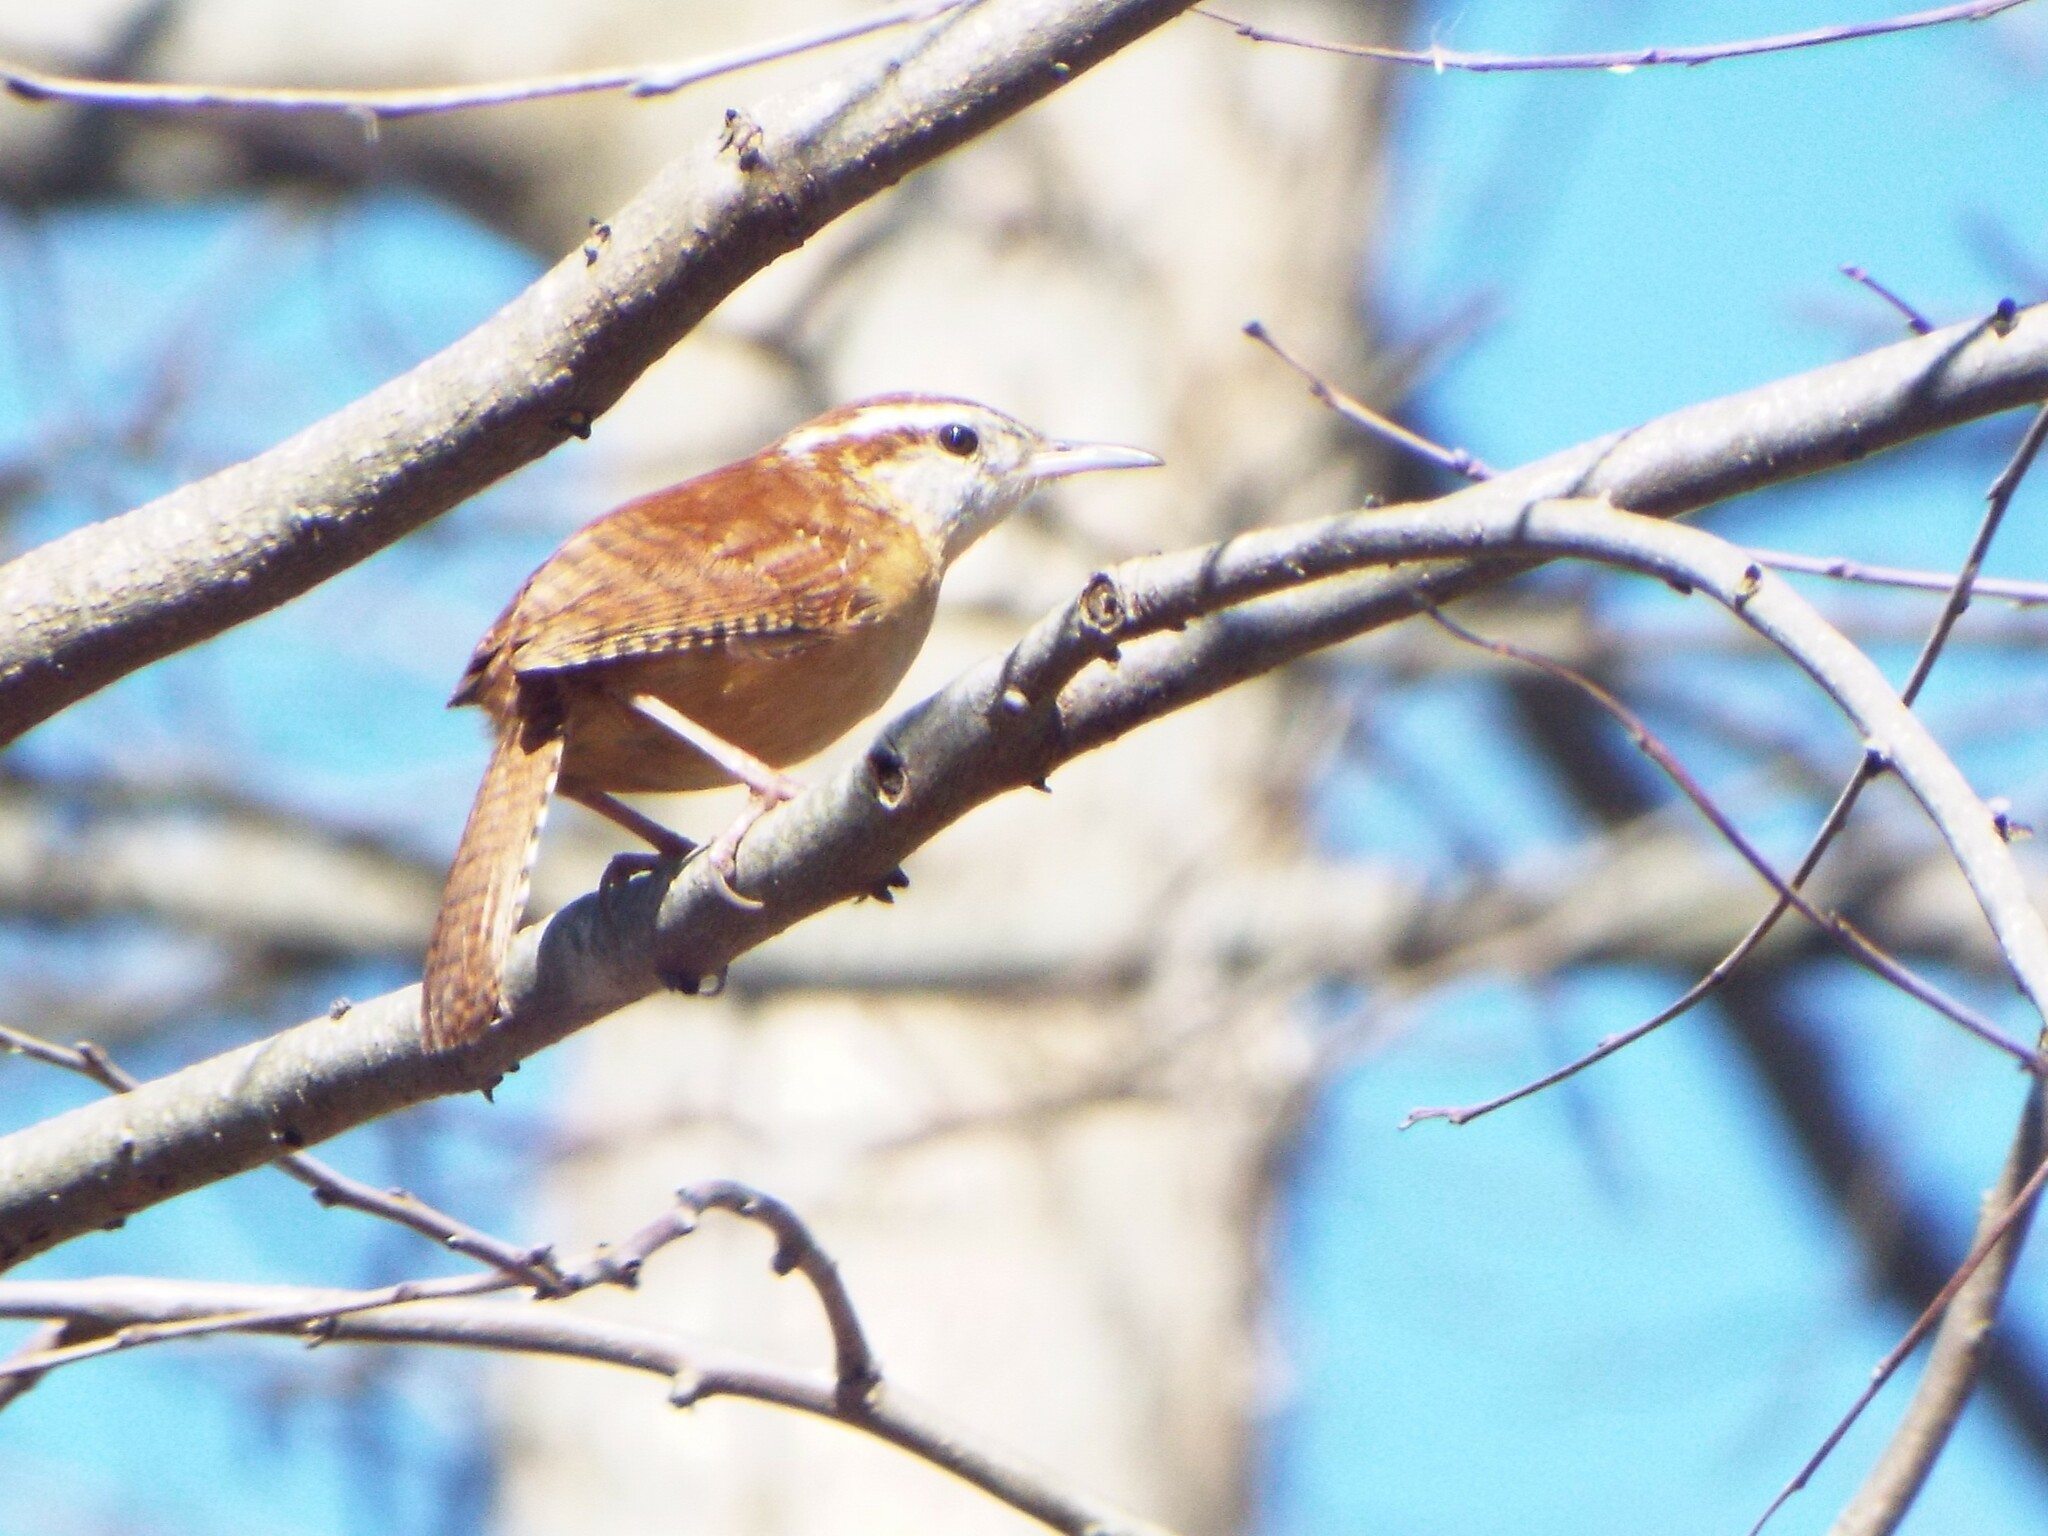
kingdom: Animalia
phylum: Chordata
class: Aves
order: Passeriformes
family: Troglodytidae
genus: Thryothorus
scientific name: Thryothorus ludovicianus
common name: Carolina wren
